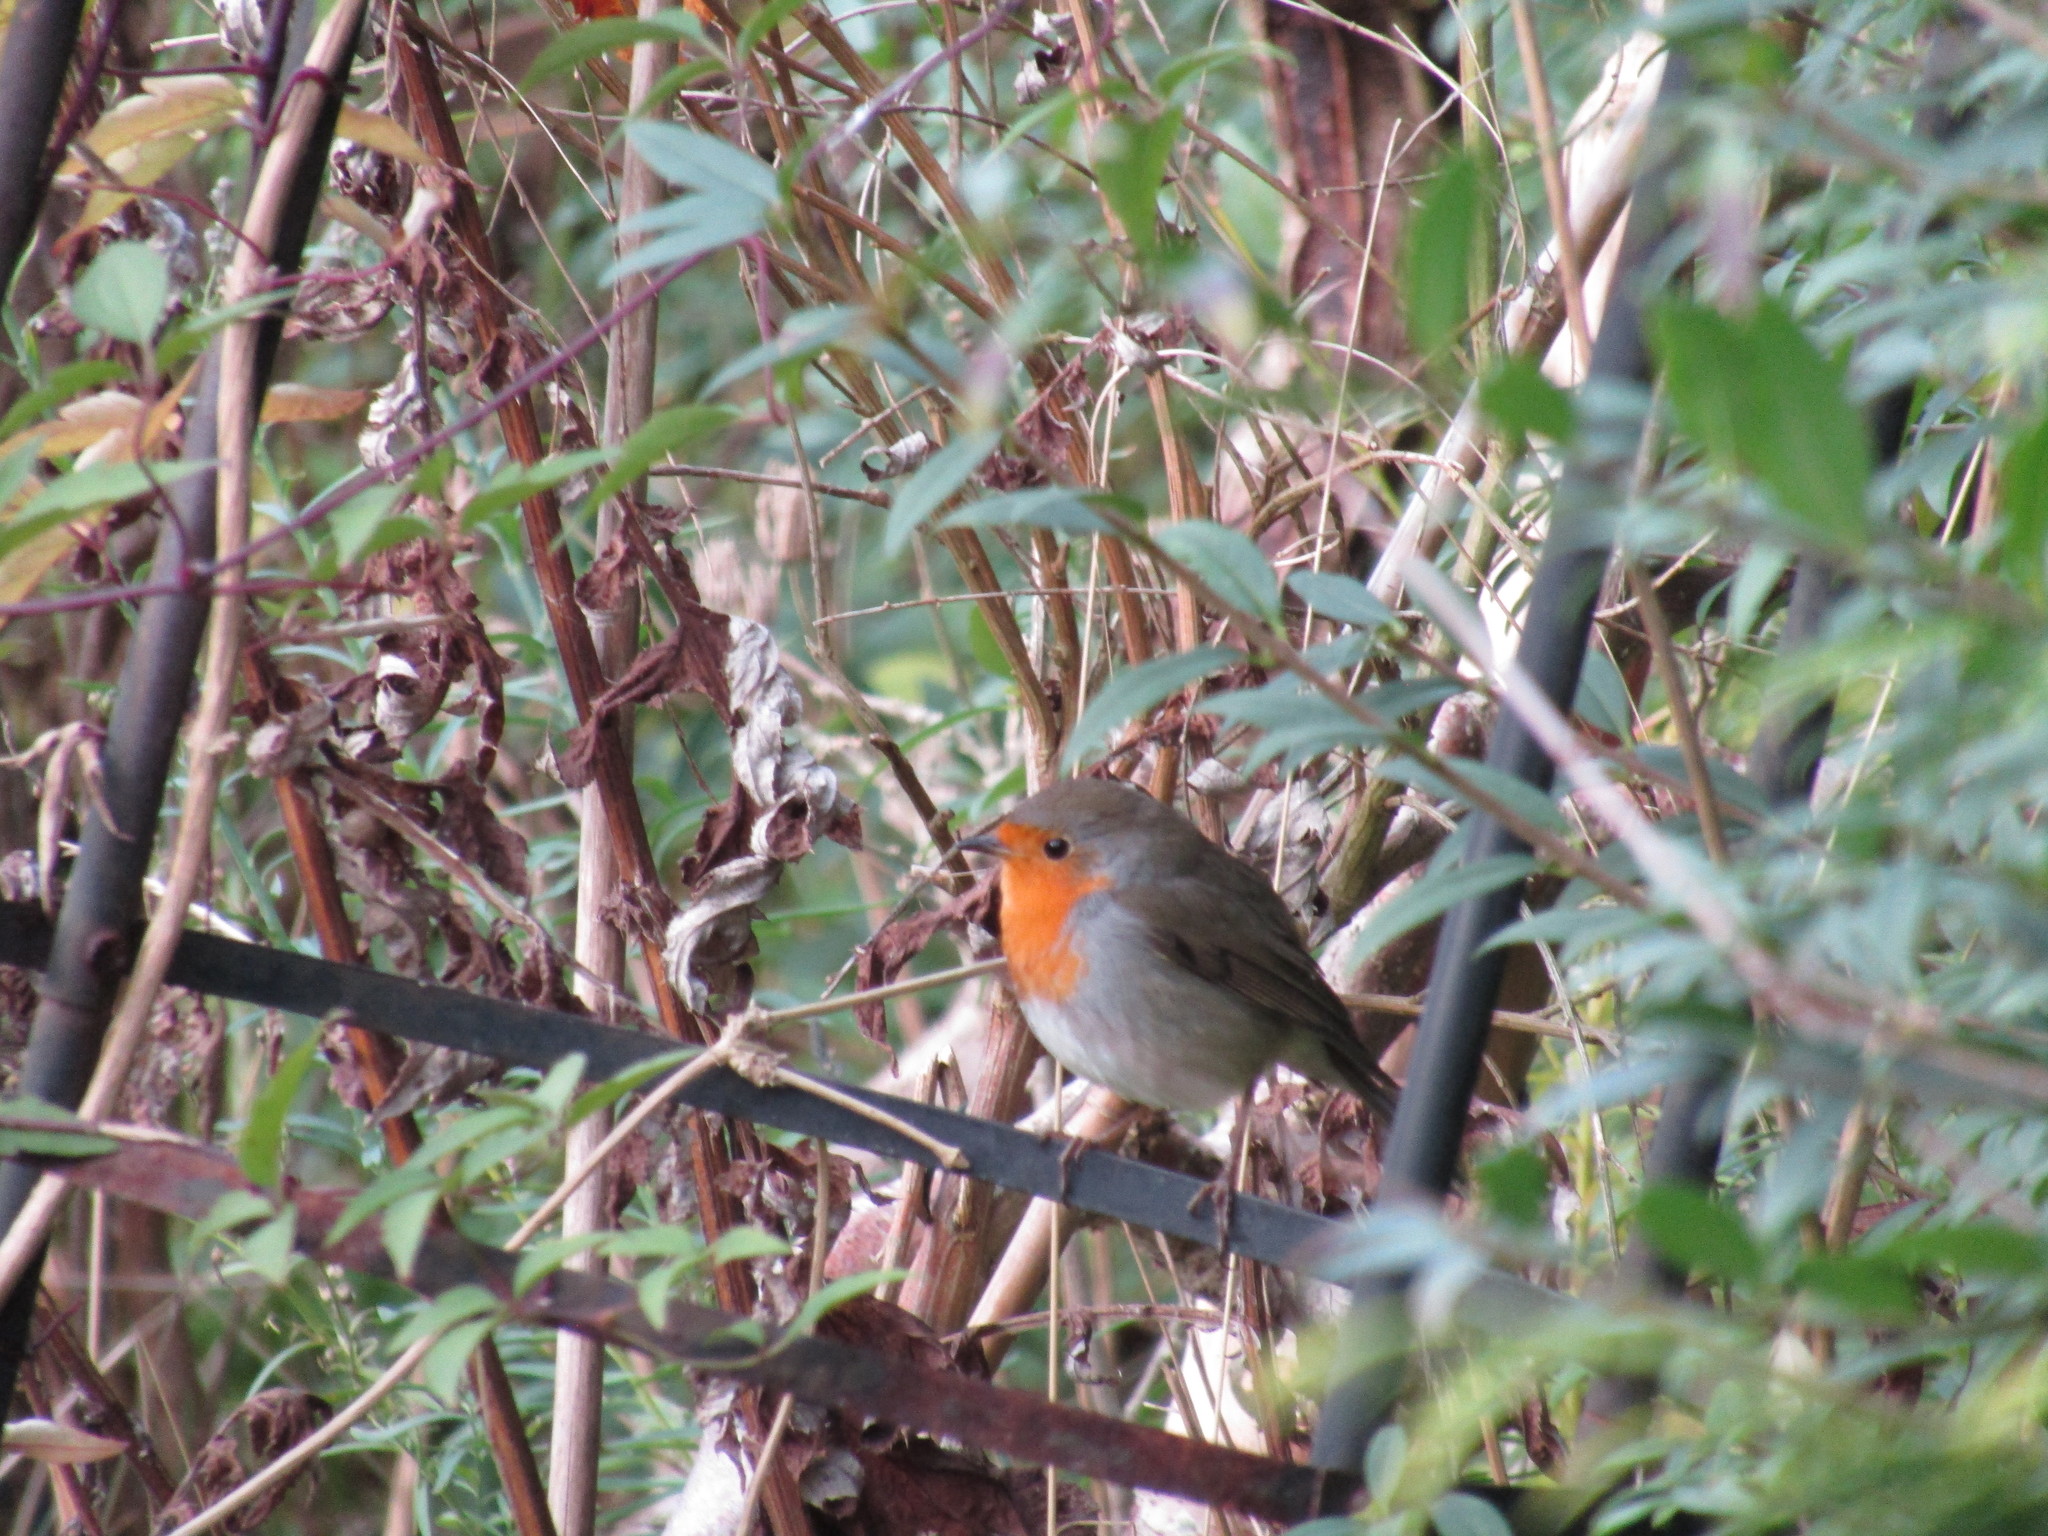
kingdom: Animalia
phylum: Chordata
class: Aves
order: Passeriformes
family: Muscicapidae
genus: Erithacus
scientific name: Erithacus rubecula
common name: European robin
